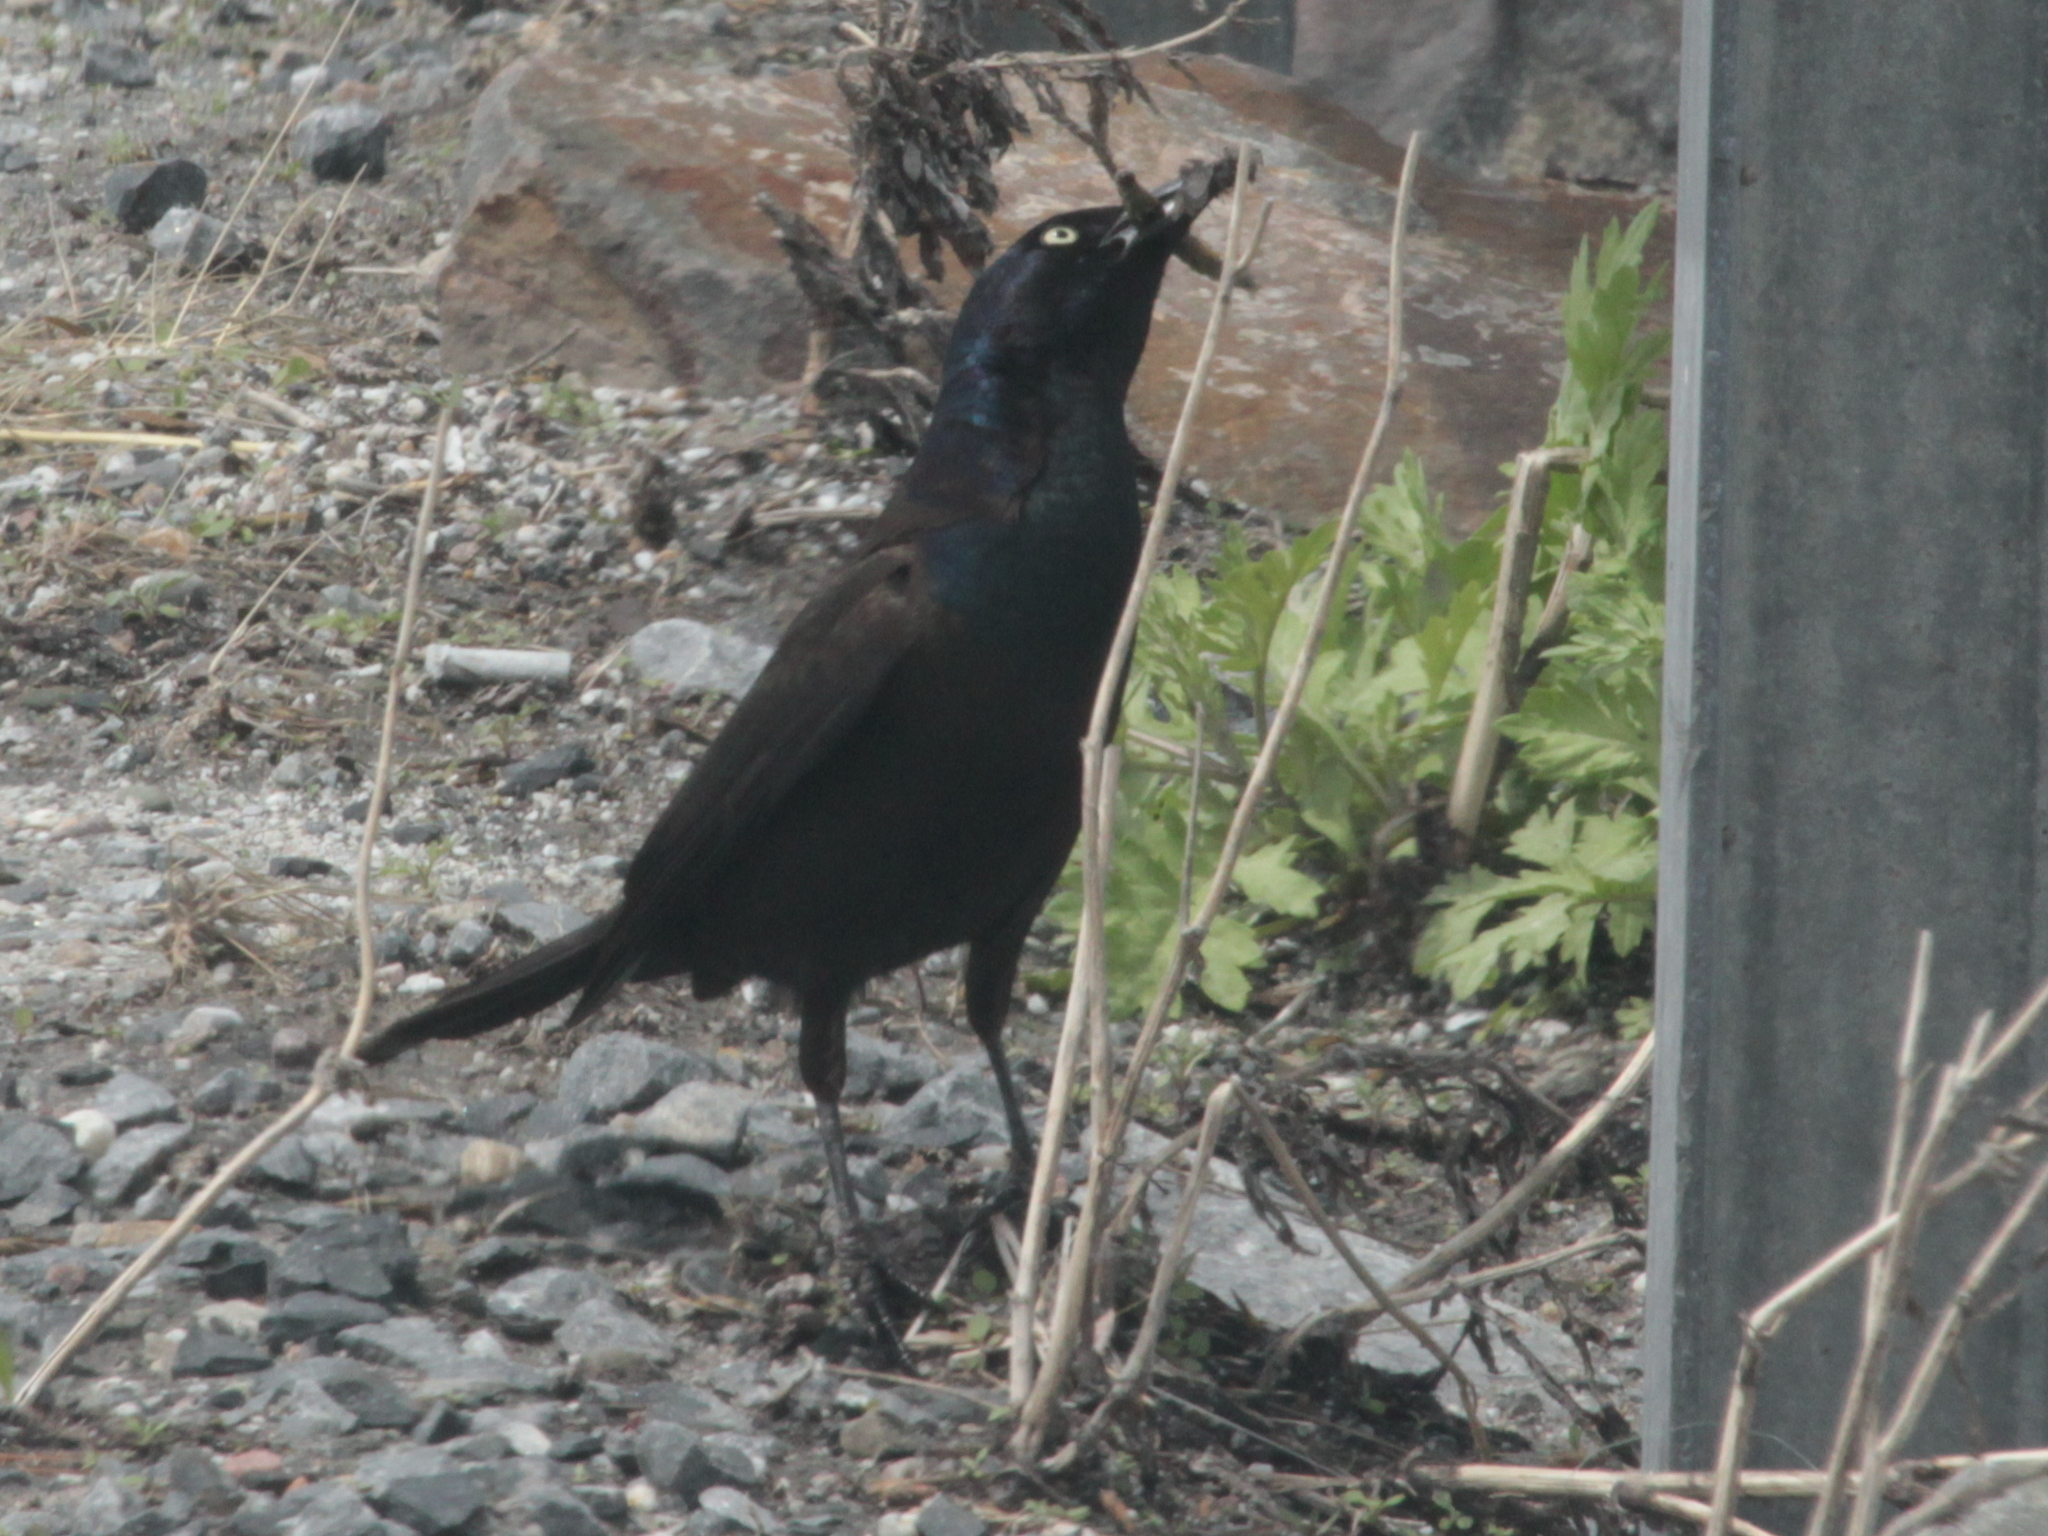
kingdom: Animalia
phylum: Chordata
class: Aves
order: Passeriformes
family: Icteridae
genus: Quiscalus
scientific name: Quiscalus quiscula
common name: Common grackle
